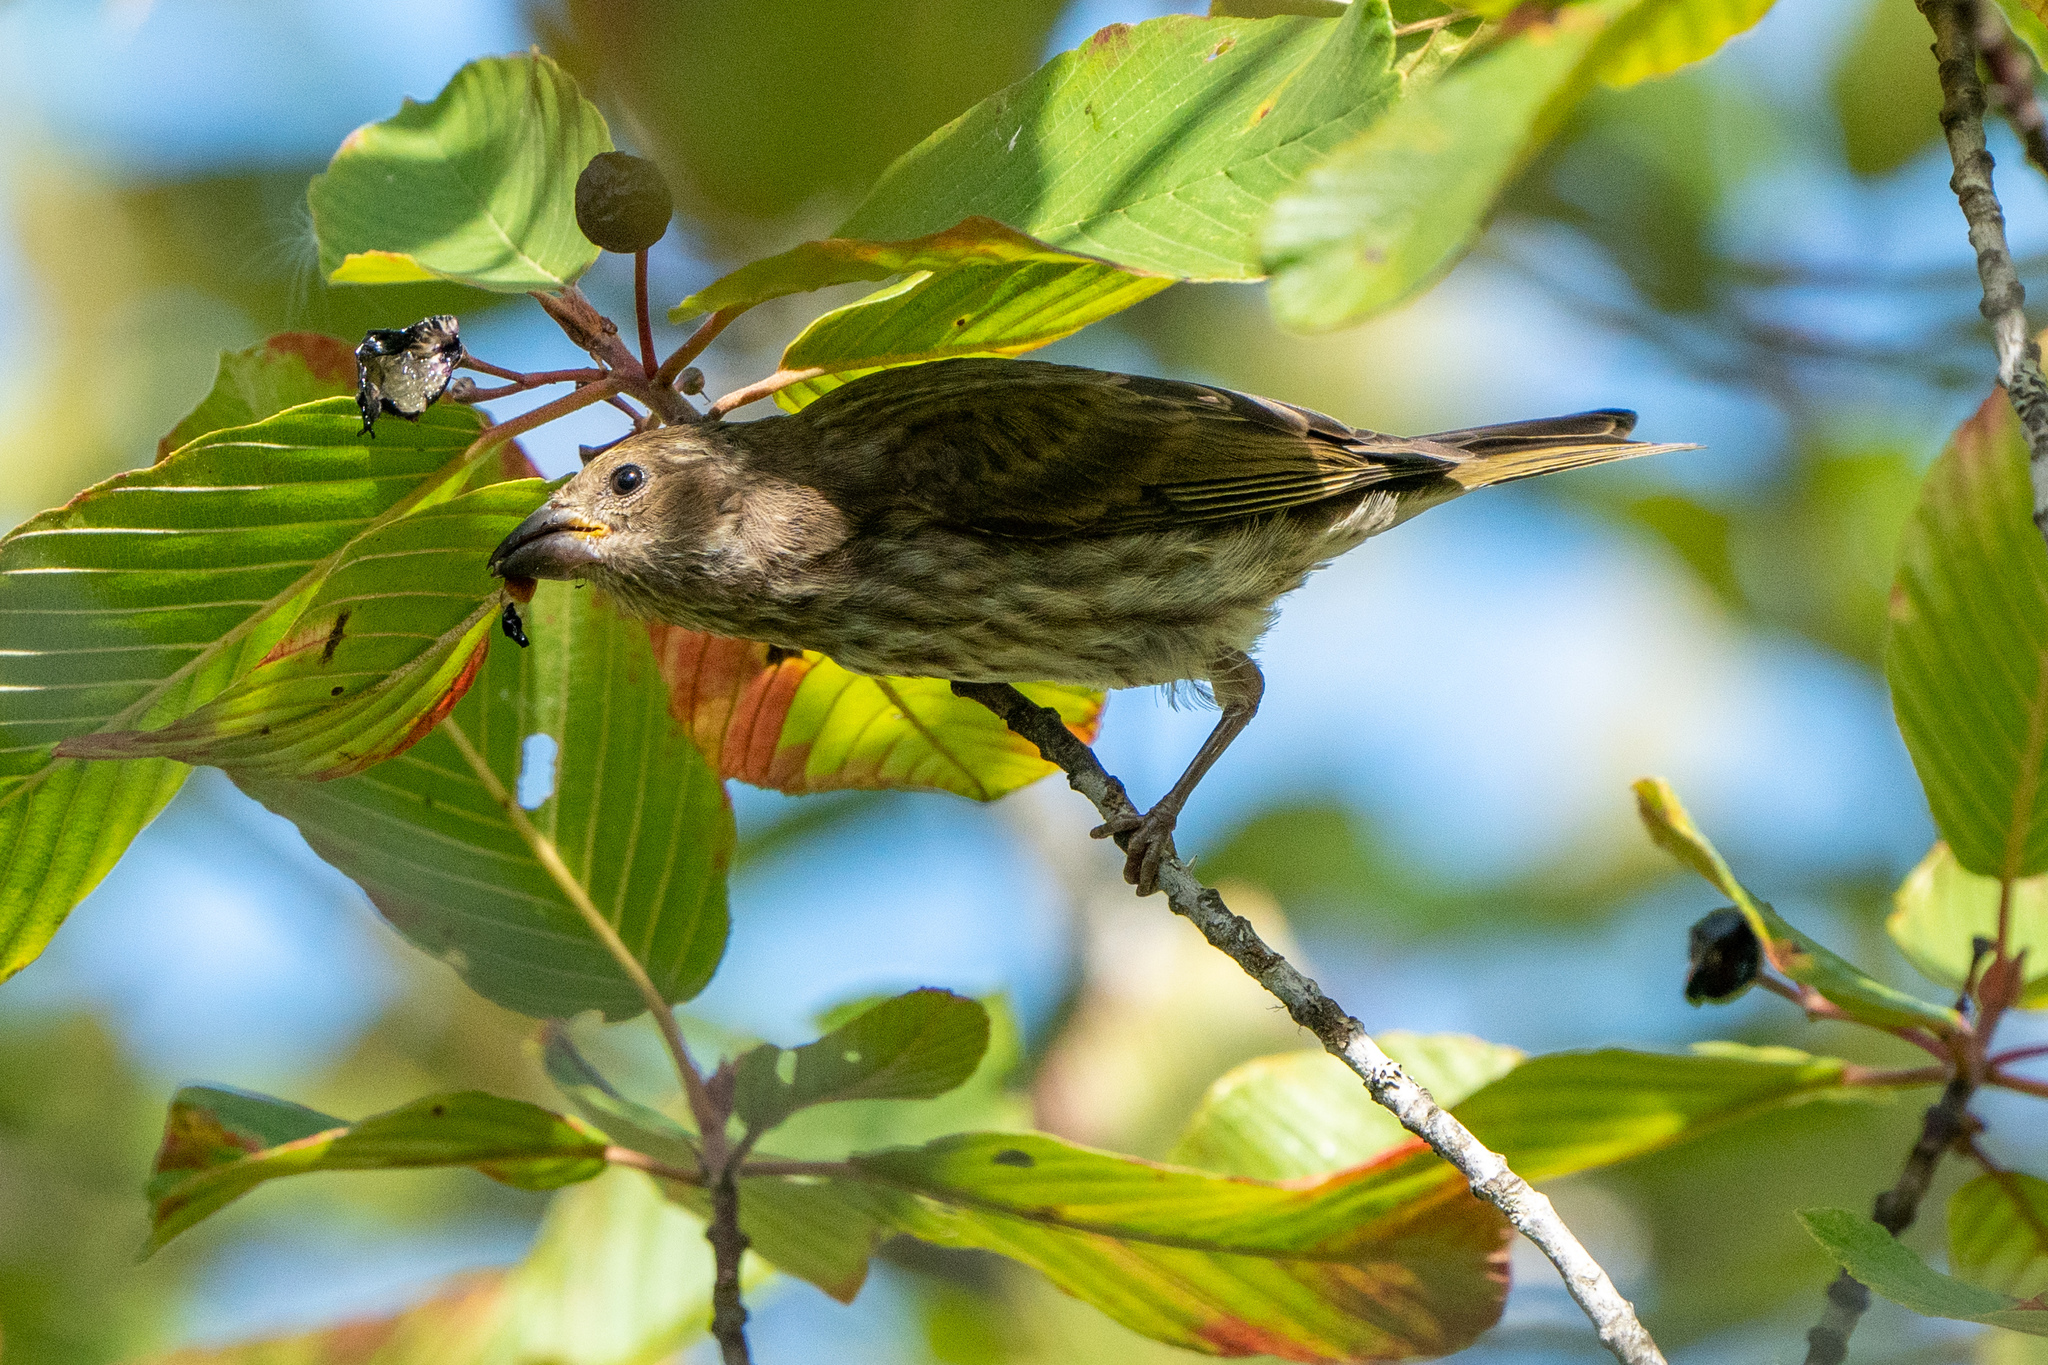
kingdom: Animalia
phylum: Chordata
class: Aves
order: Passeriformes
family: Fringillidae
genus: Haemorhous
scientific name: Haemorhous purpureus
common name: Purple finch
